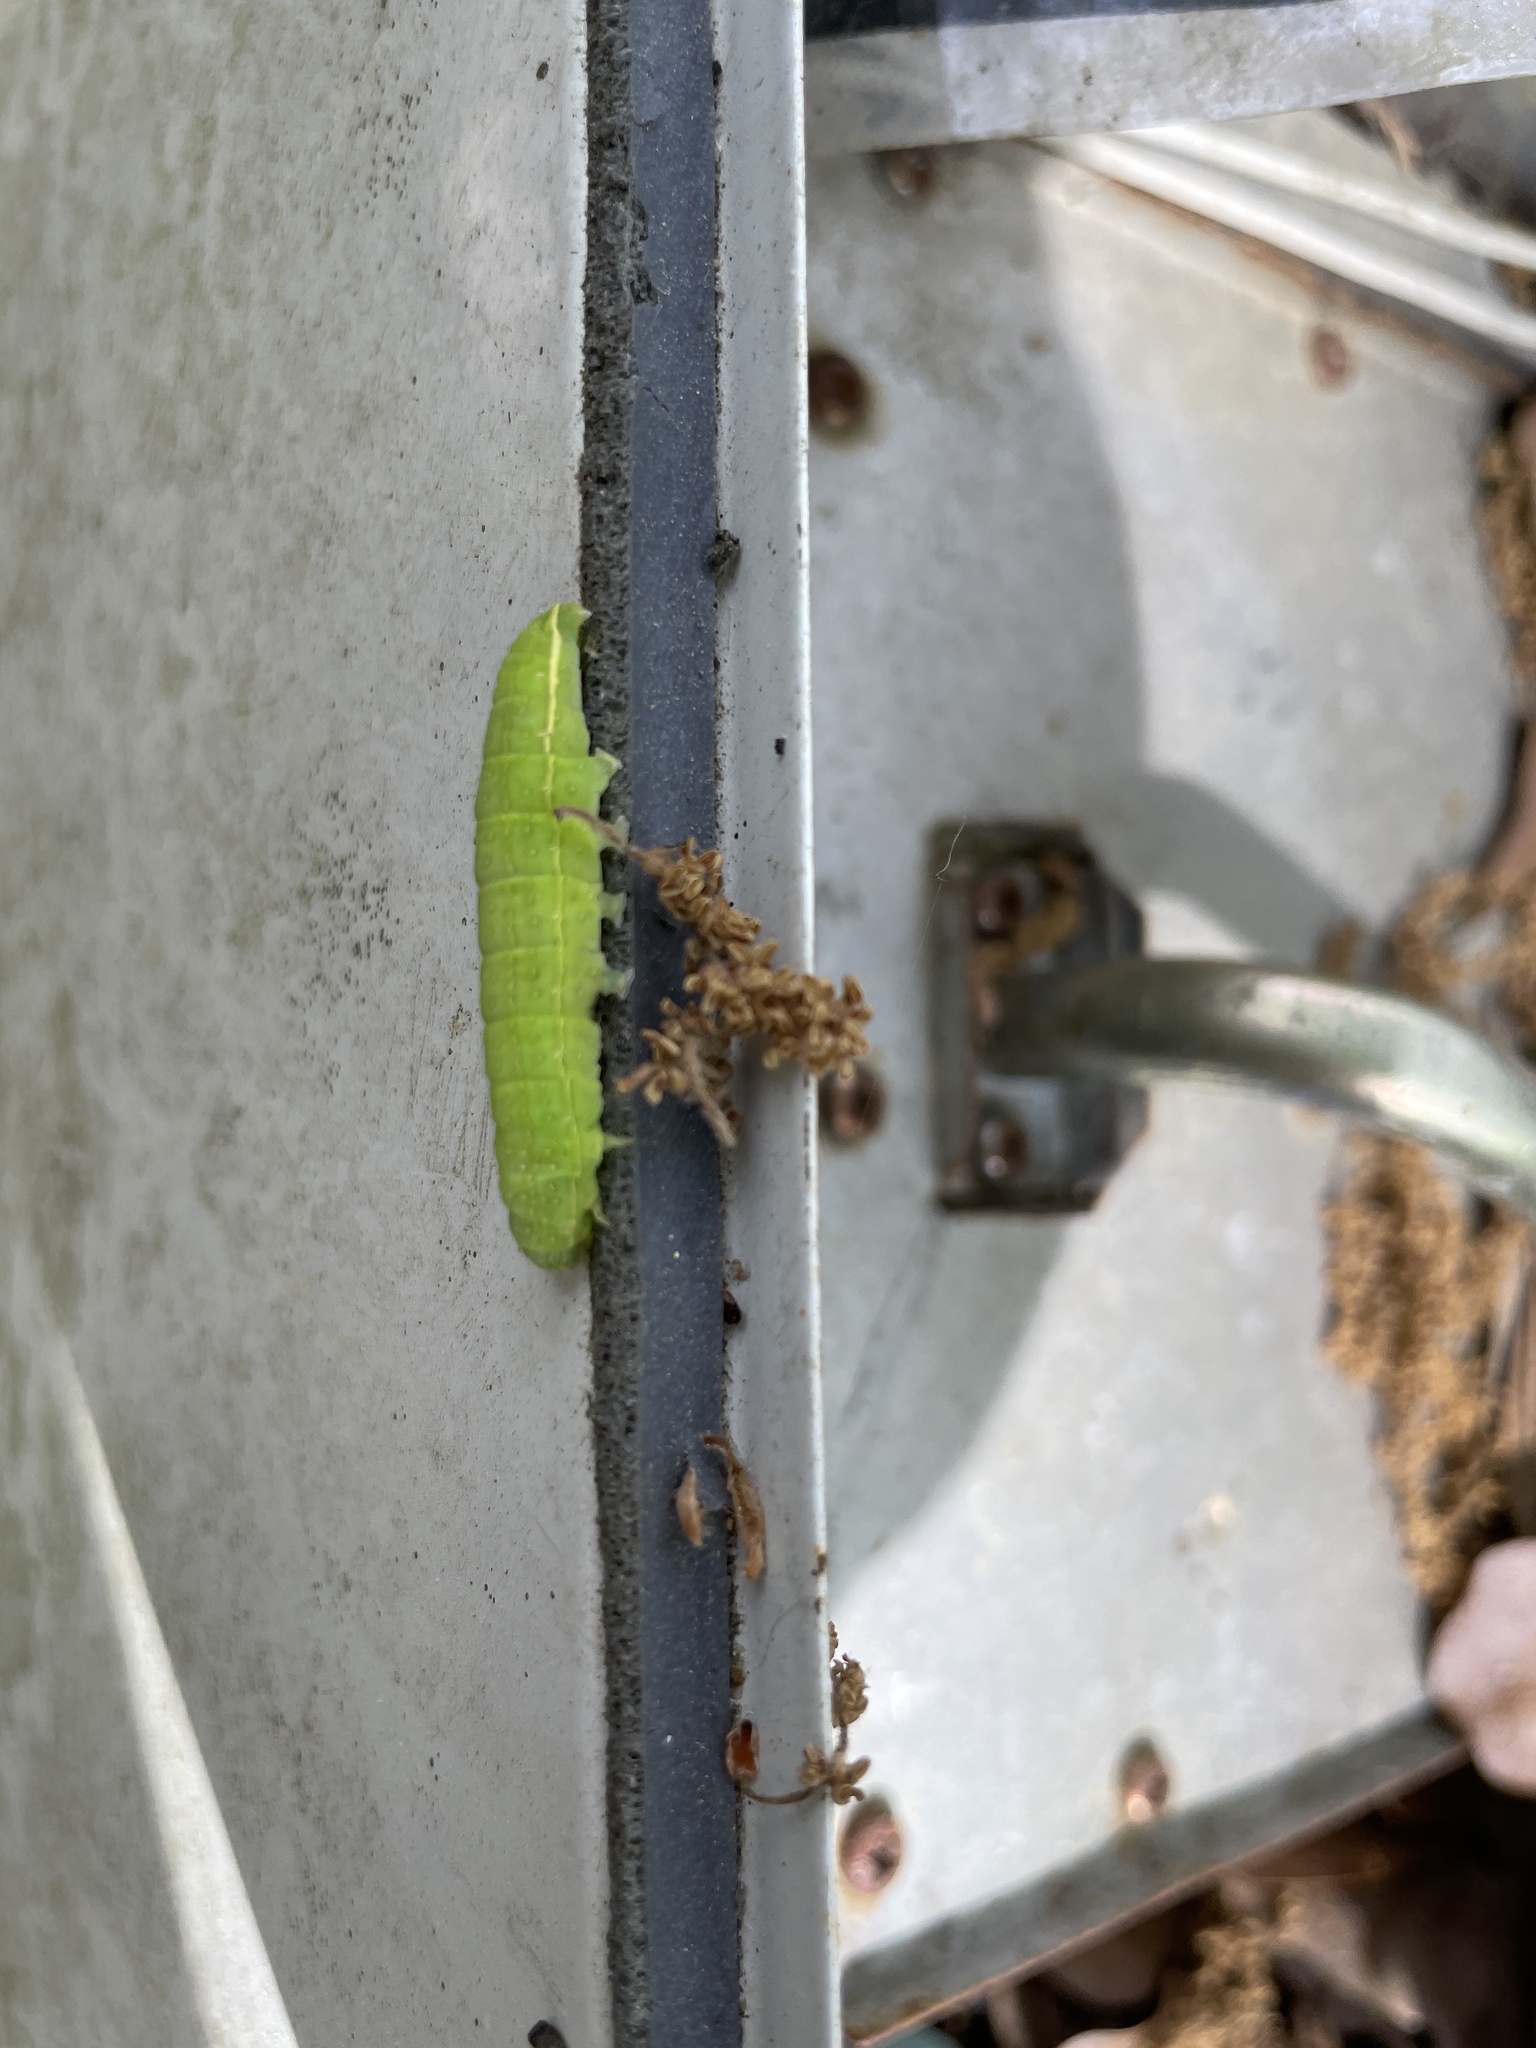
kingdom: Animalia
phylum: Arthropoda
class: Insecta
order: Lepidoptera
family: Noctuidae
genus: Psaphida
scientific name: Psaphida rolandi
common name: Roland's sallow
